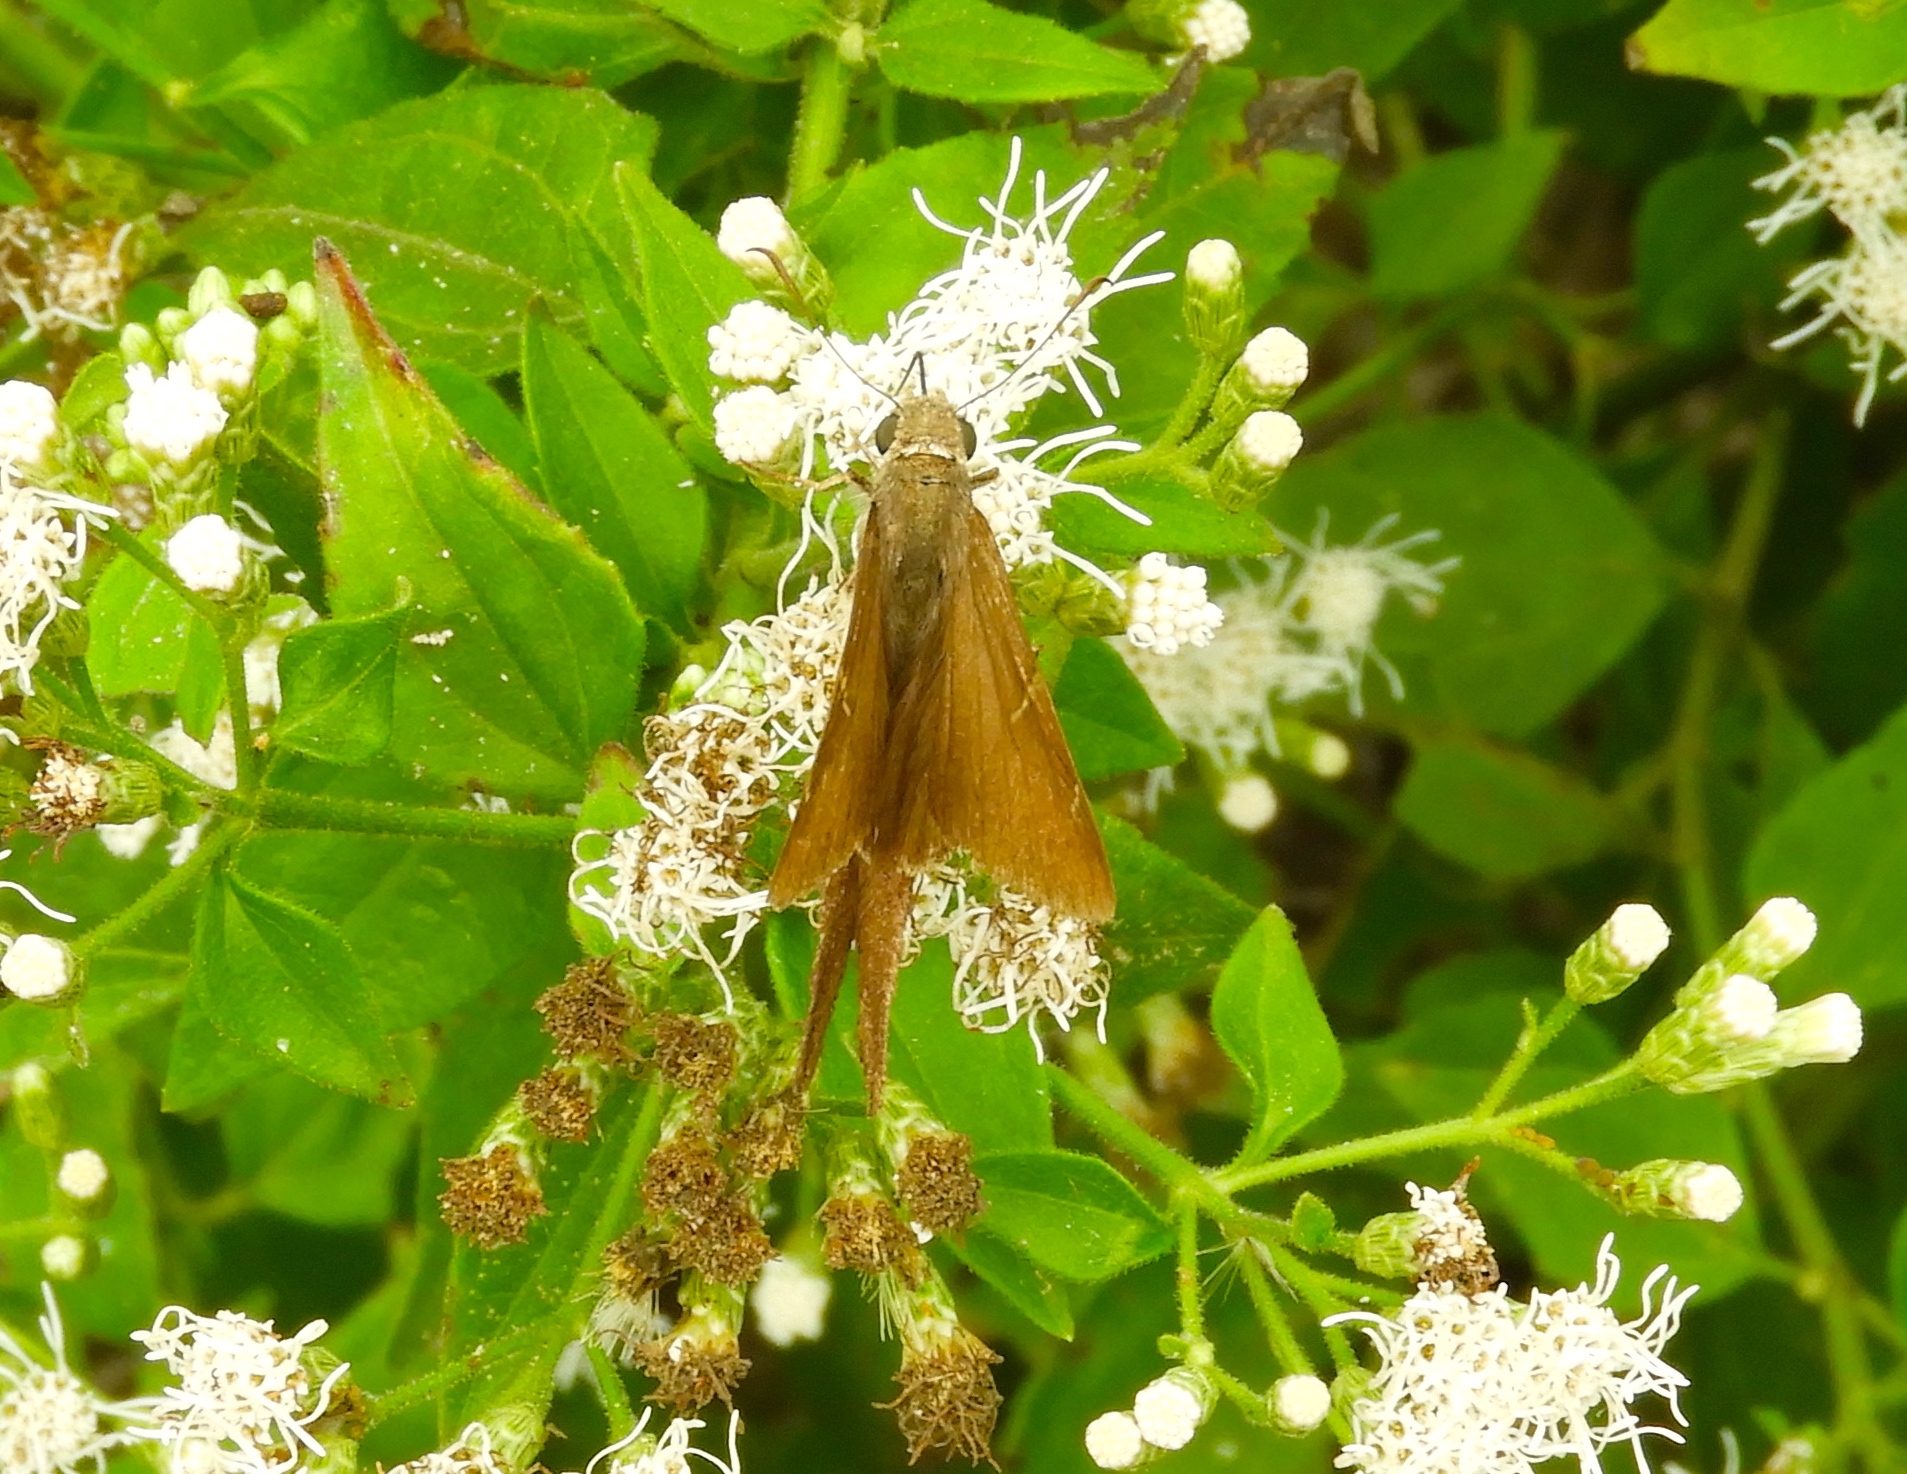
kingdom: Animalia
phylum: Arthropoda
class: Insecta
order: Lepidoptera
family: Hesperiidae
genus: Urbanus
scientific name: Urbanus procne
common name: Brown longtail
